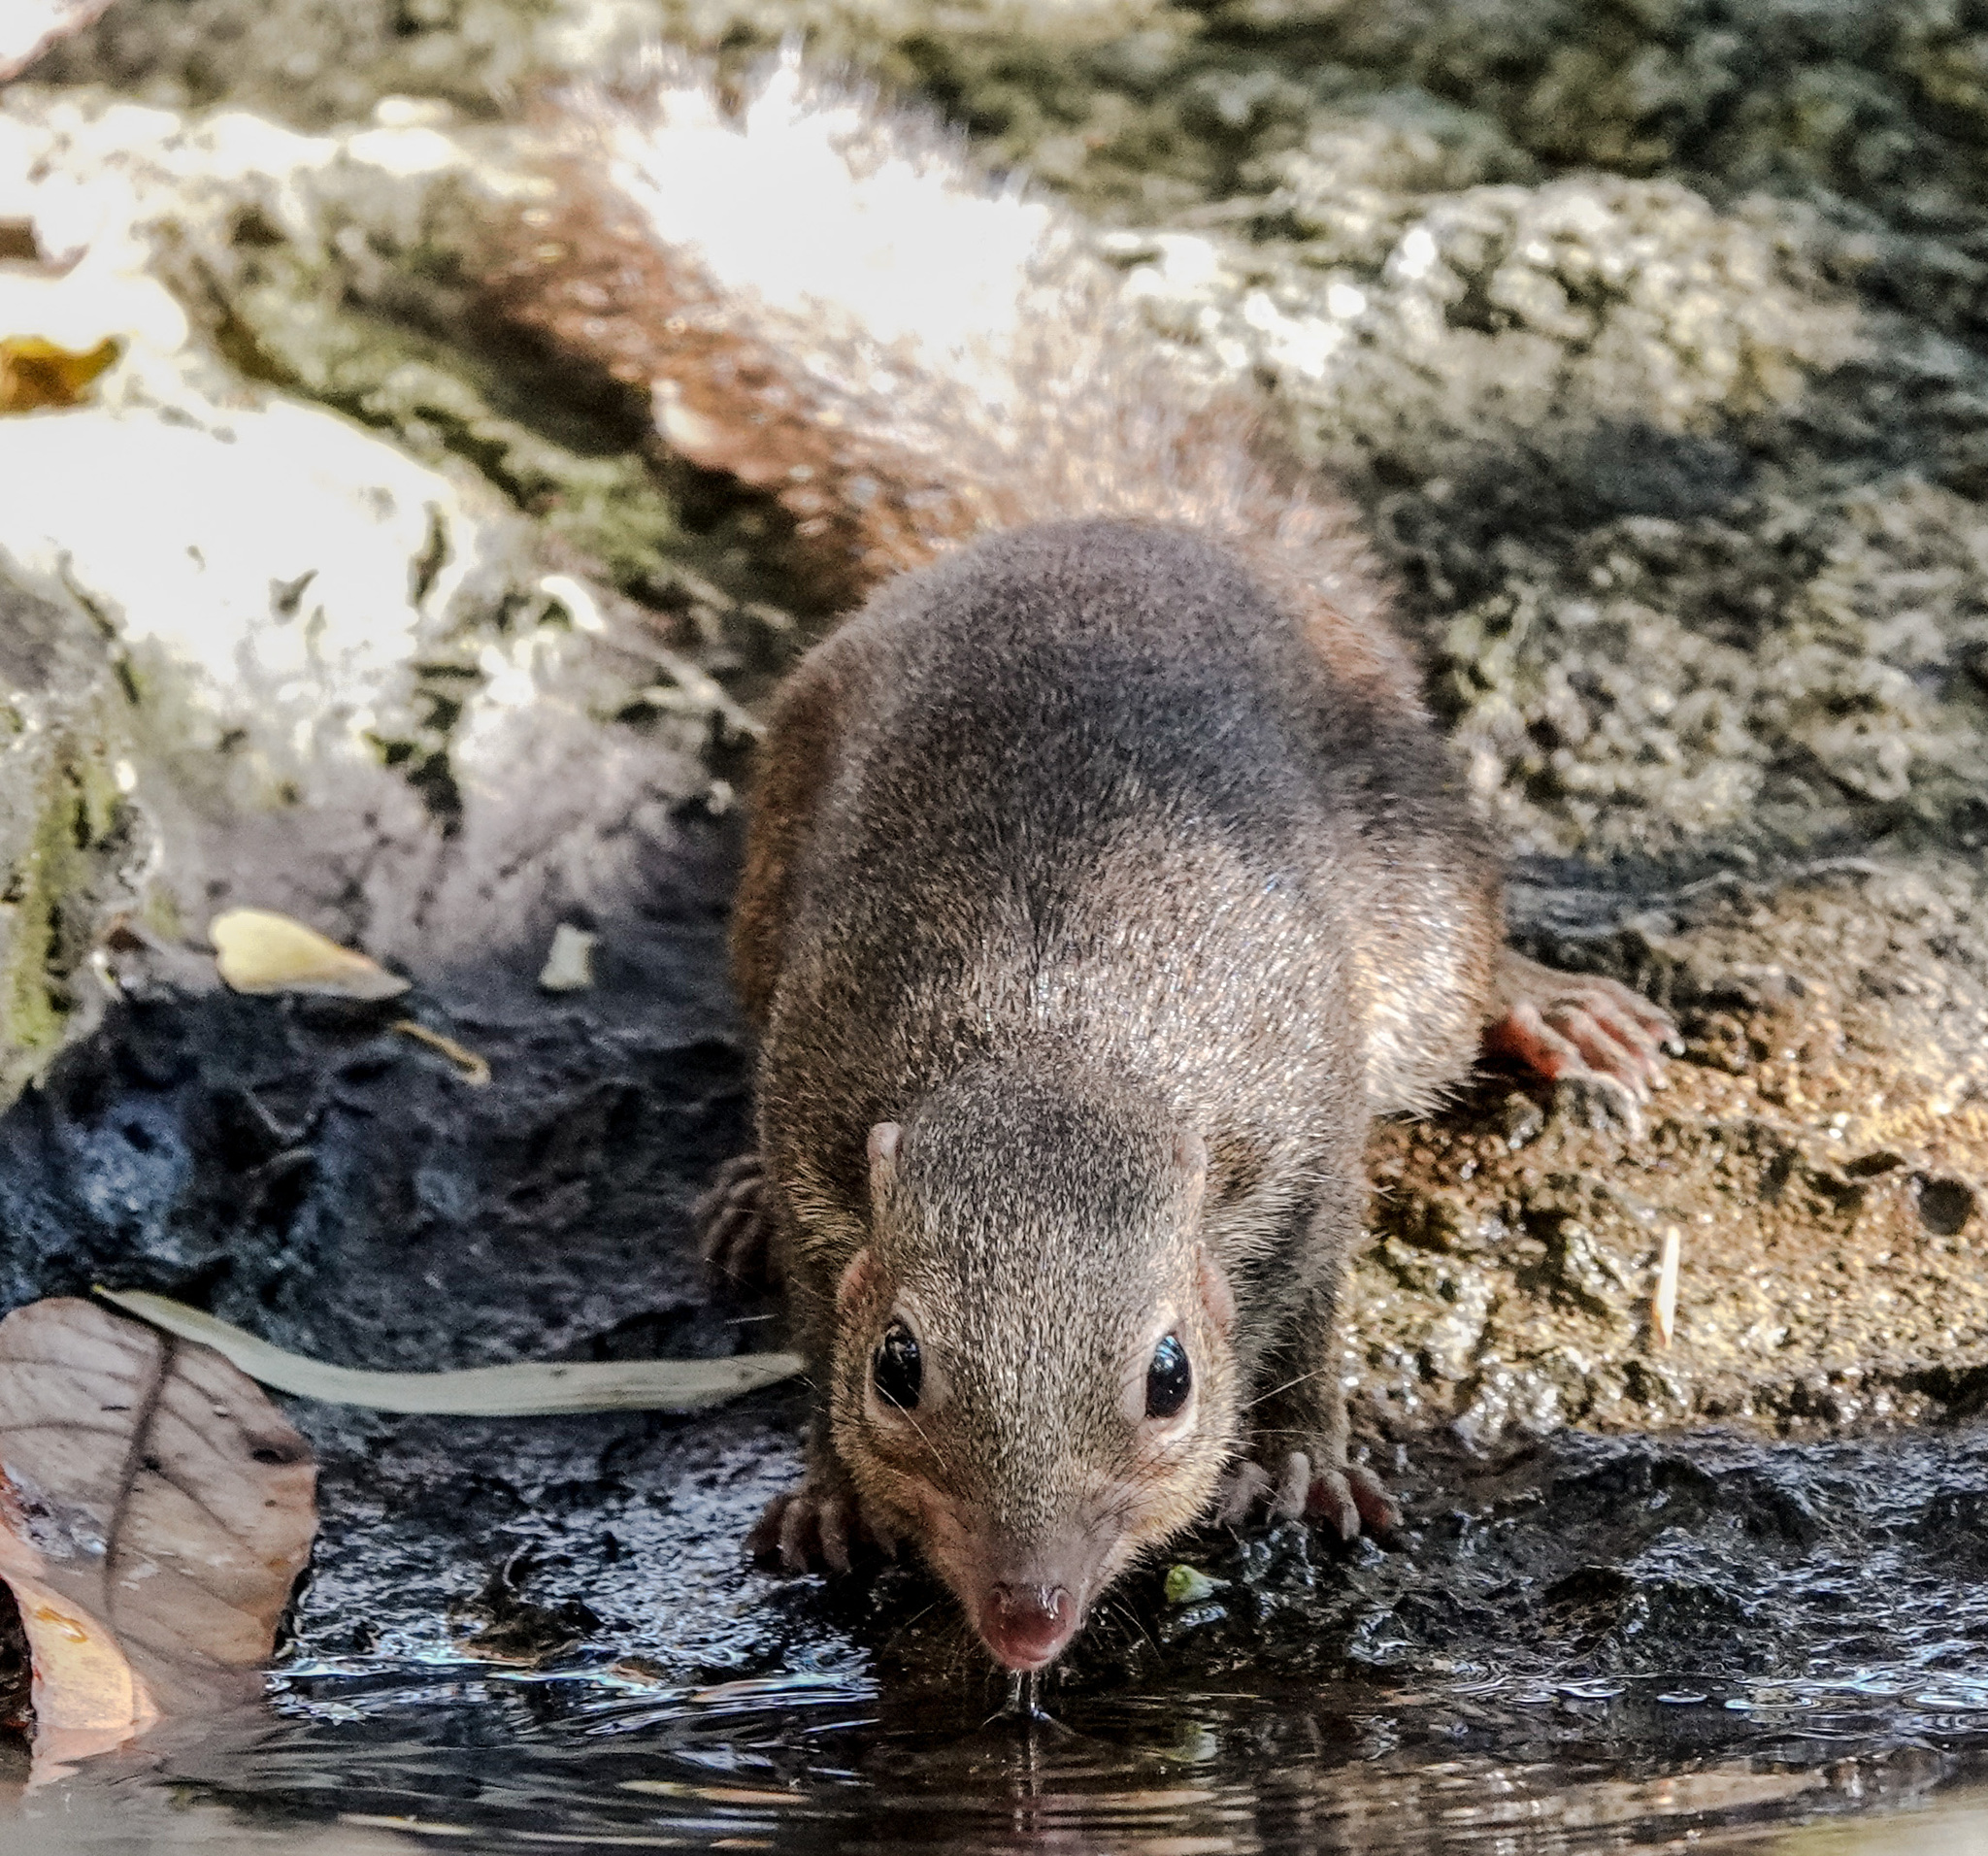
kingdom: Animalia
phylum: Chordata
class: Mammalia
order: Scandentia
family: Tupaiidae
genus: Tupaia
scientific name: Tupaia belangeri
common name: Northern treeshrew
